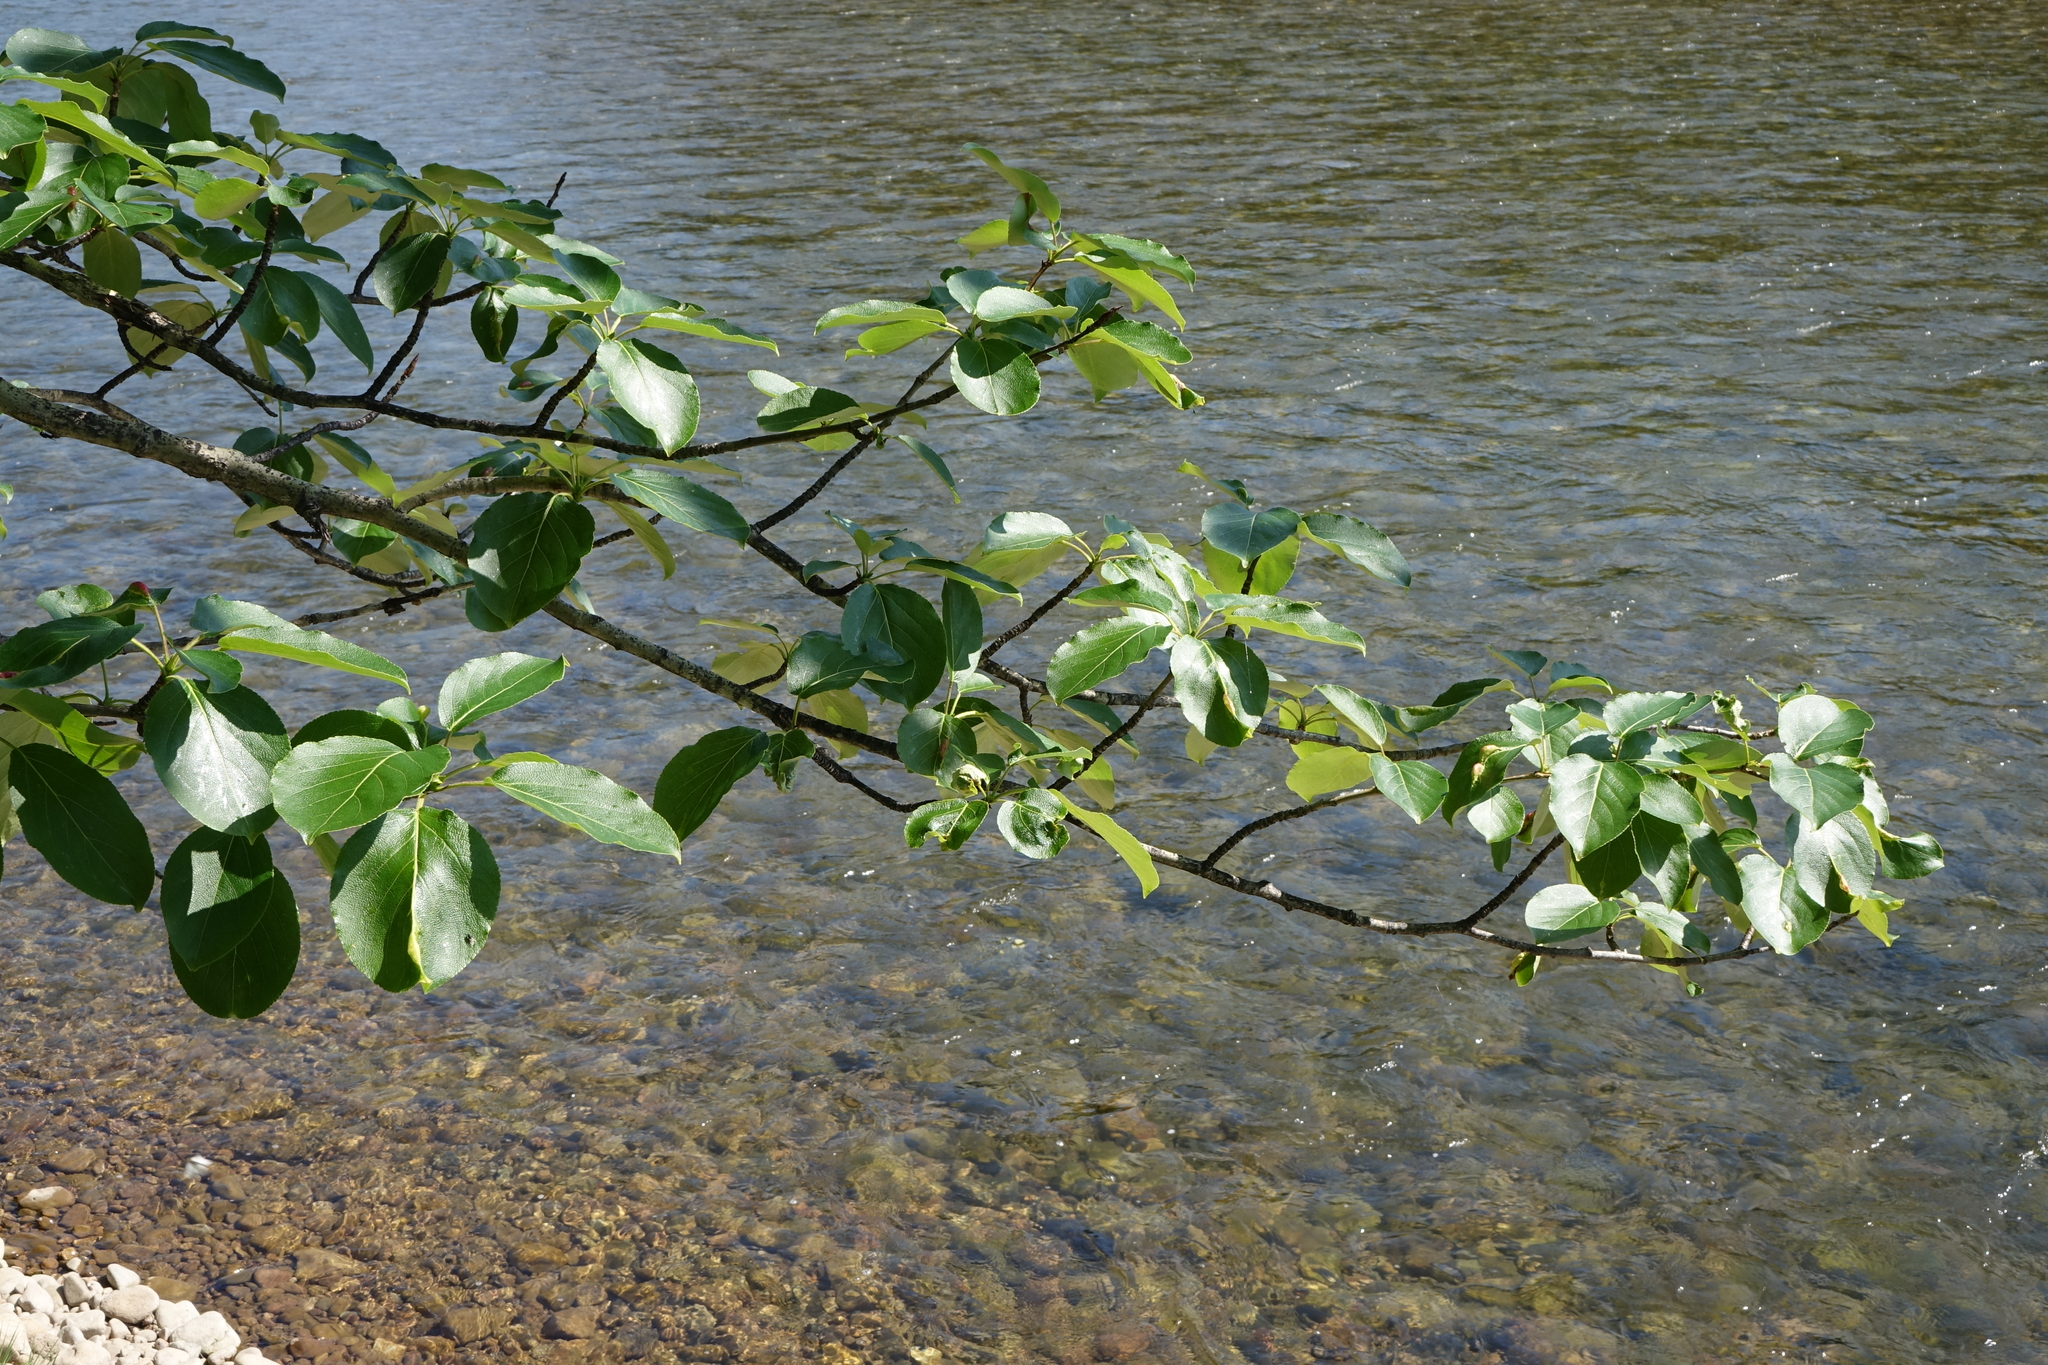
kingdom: Plantae
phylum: Tracheophyta
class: Magnoliopsida
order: Malpighiales
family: Salicaceae
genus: Populus
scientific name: Populus suaveolens
